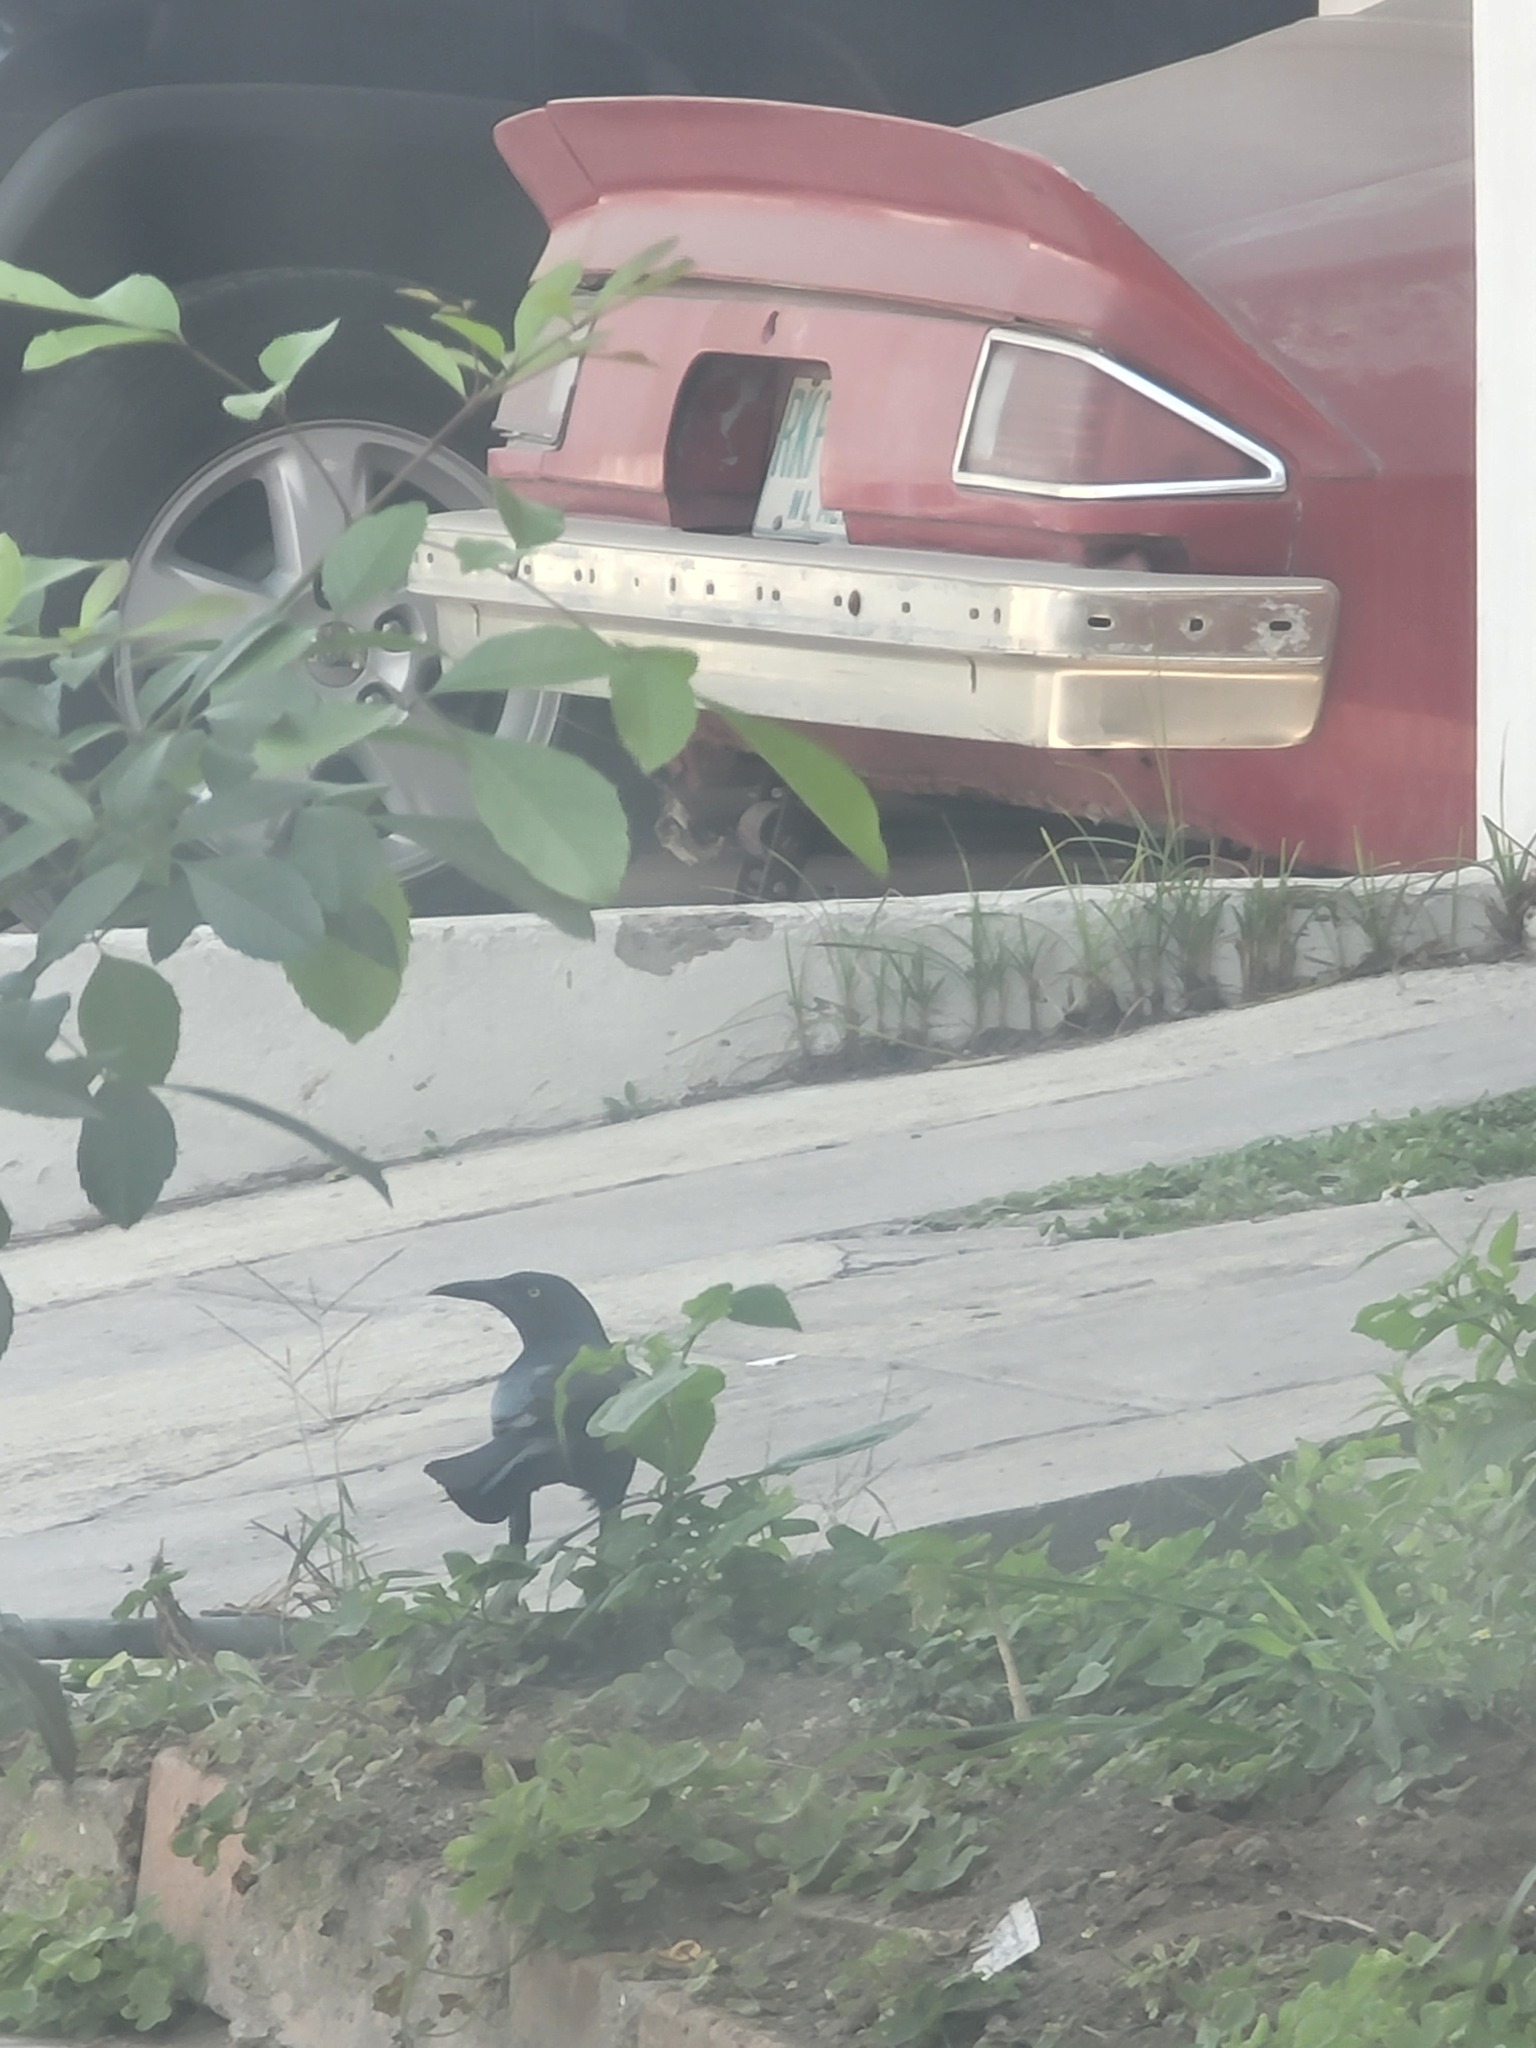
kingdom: Animalia
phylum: Chordata
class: Aves
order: Passeriformes
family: Icteridae
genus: Quiscalus
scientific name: Quiscalus mexicanus
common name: Great-tailed grackle
